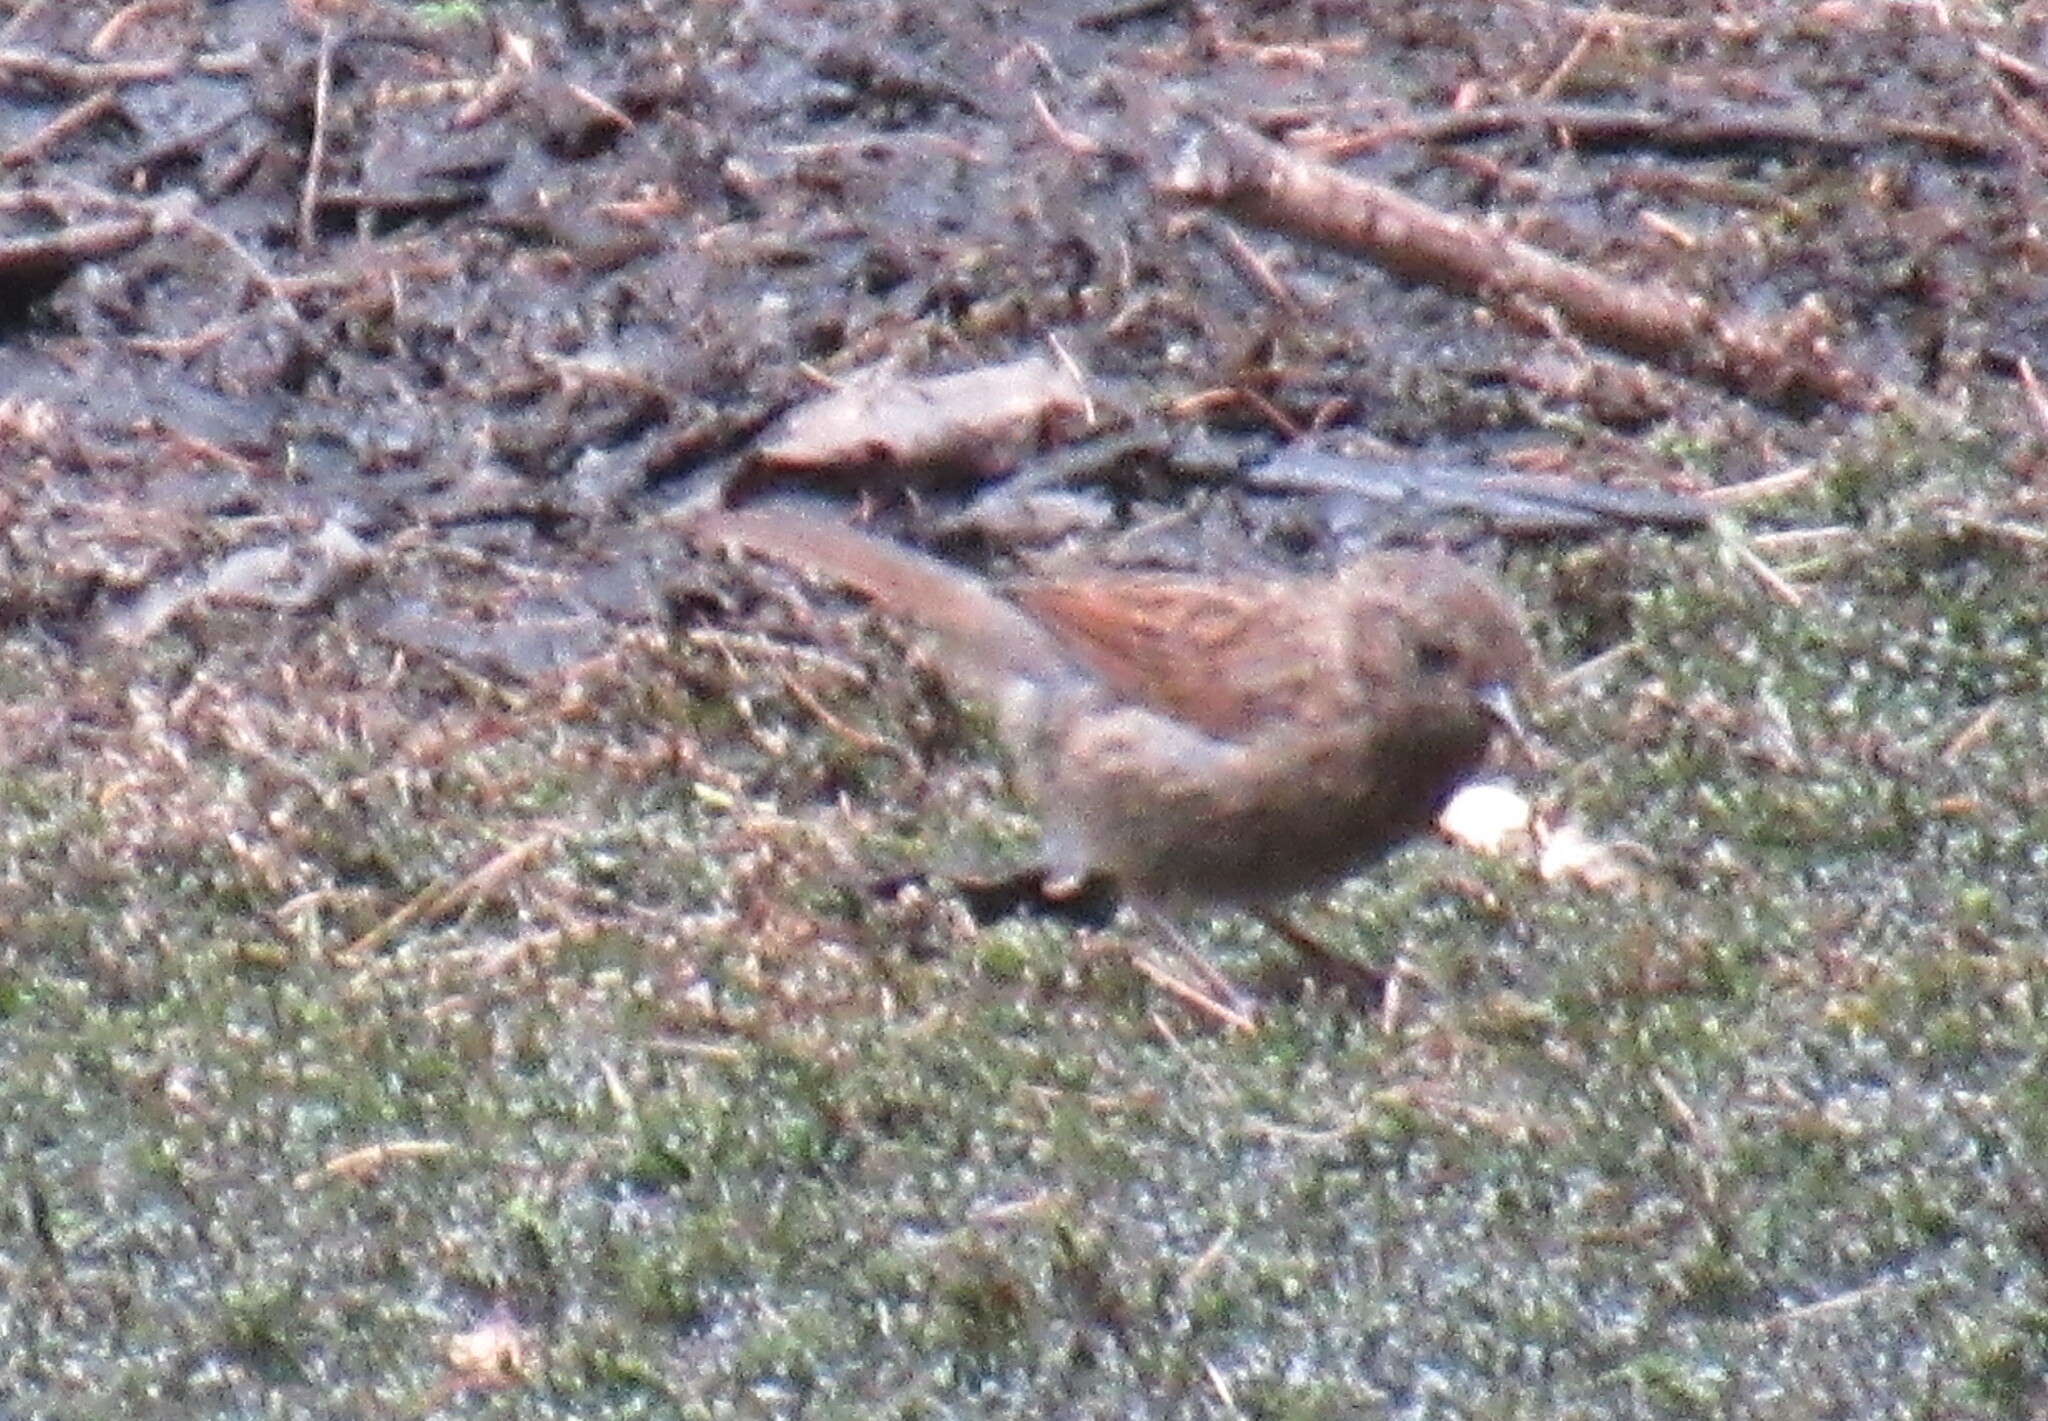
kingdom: Animalia
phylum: Chordata
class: Aves
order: Passeriformes
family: Prunellidae
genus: Prunella
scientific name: Prunella modularis
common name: Dunnock
